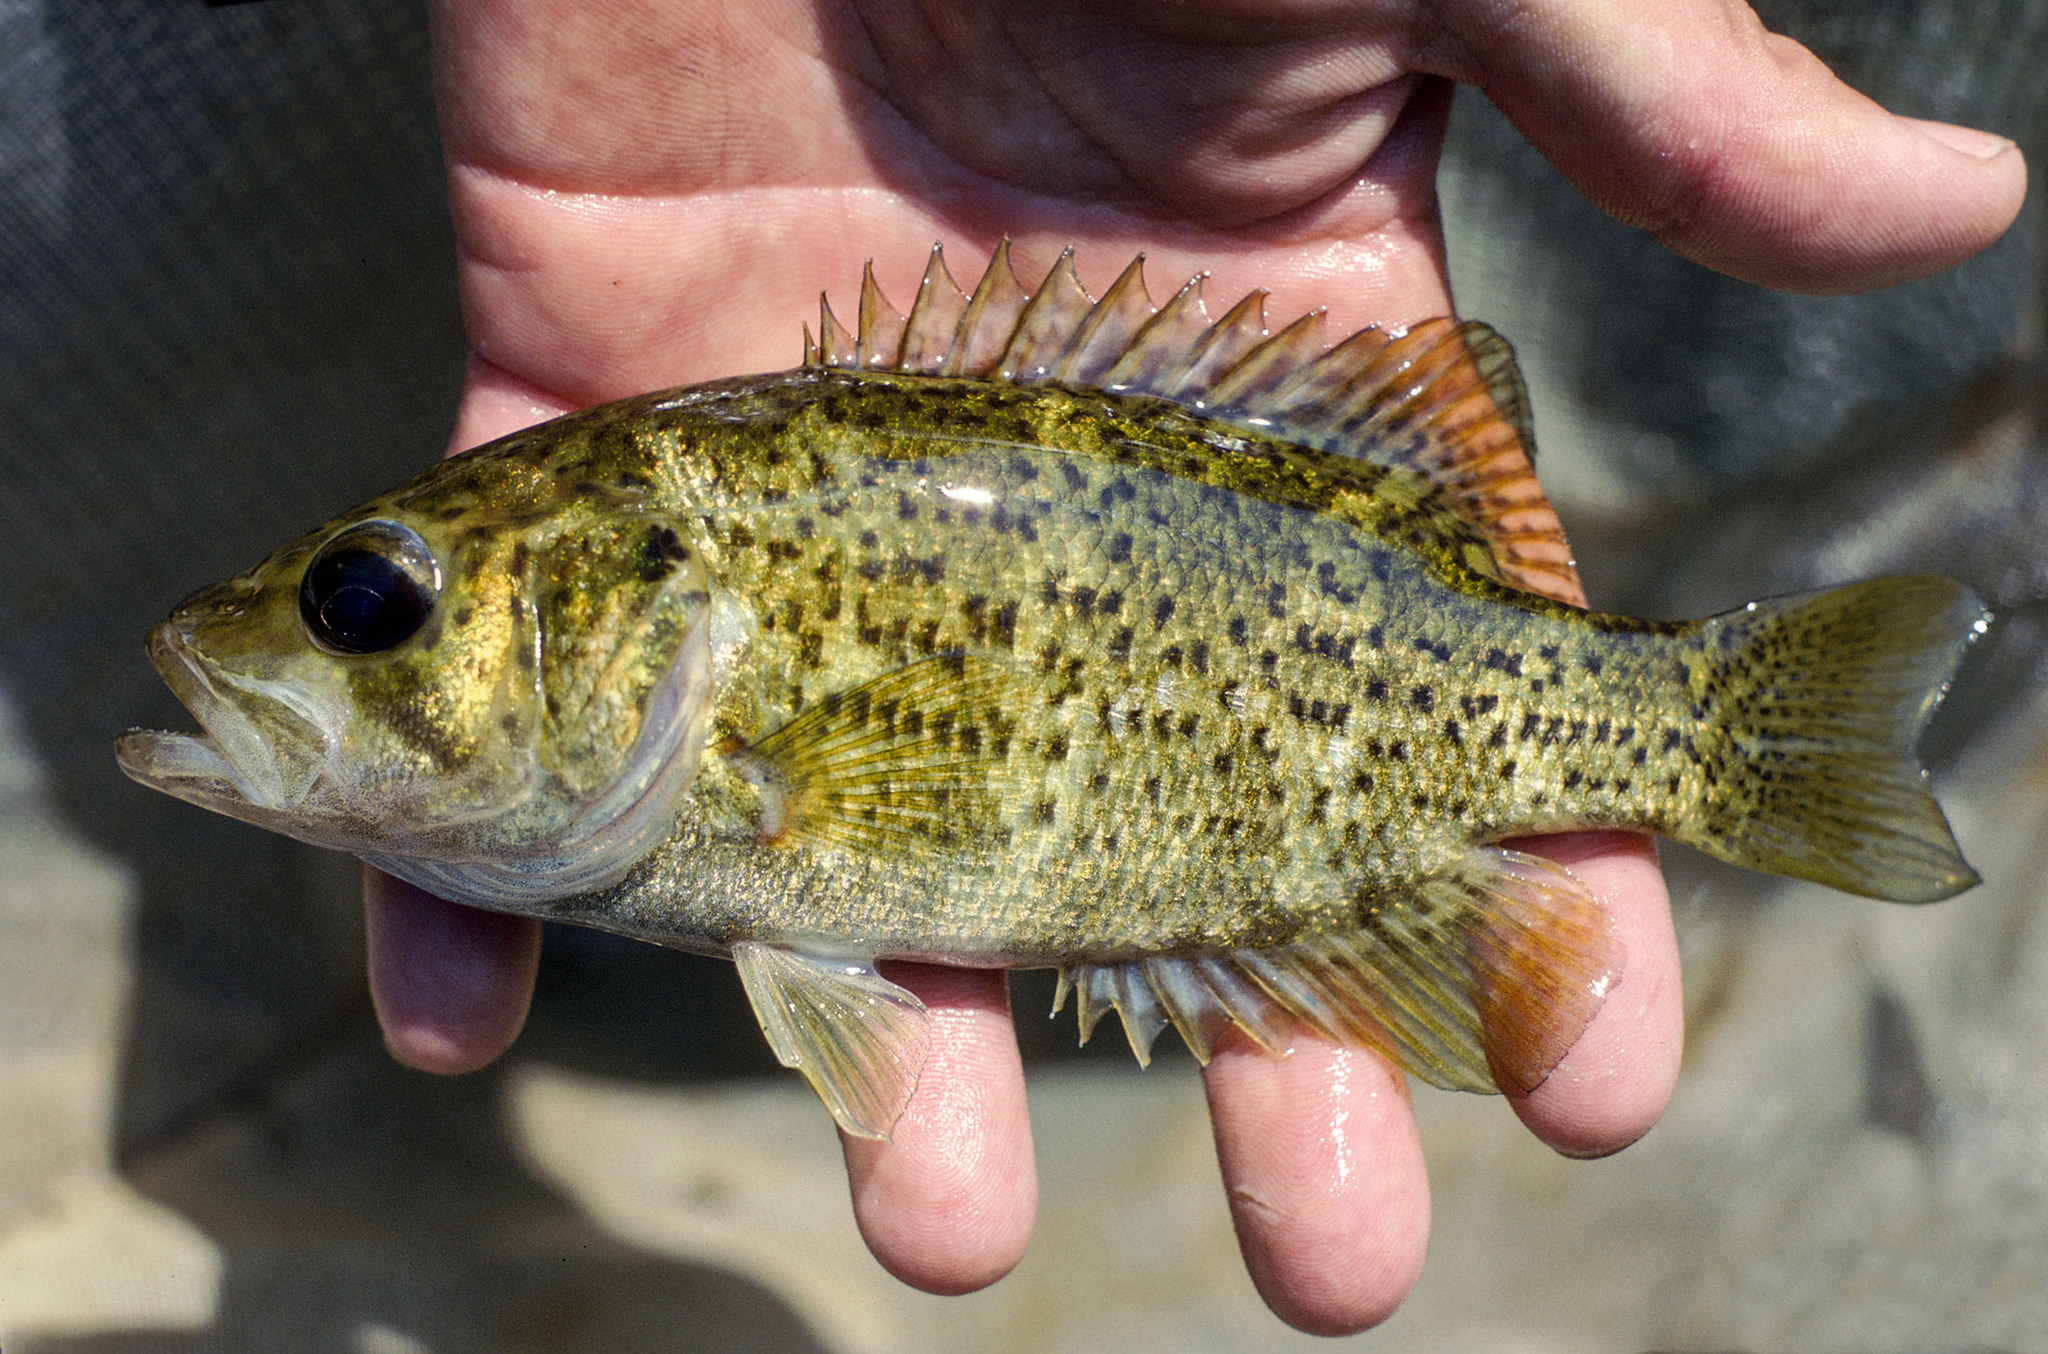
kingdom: Animalia
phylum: Chordata
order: Perciformes
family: Centrarchidae
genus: Ambloplites
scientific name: Ambloplites constellatus
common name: Ozark bass
